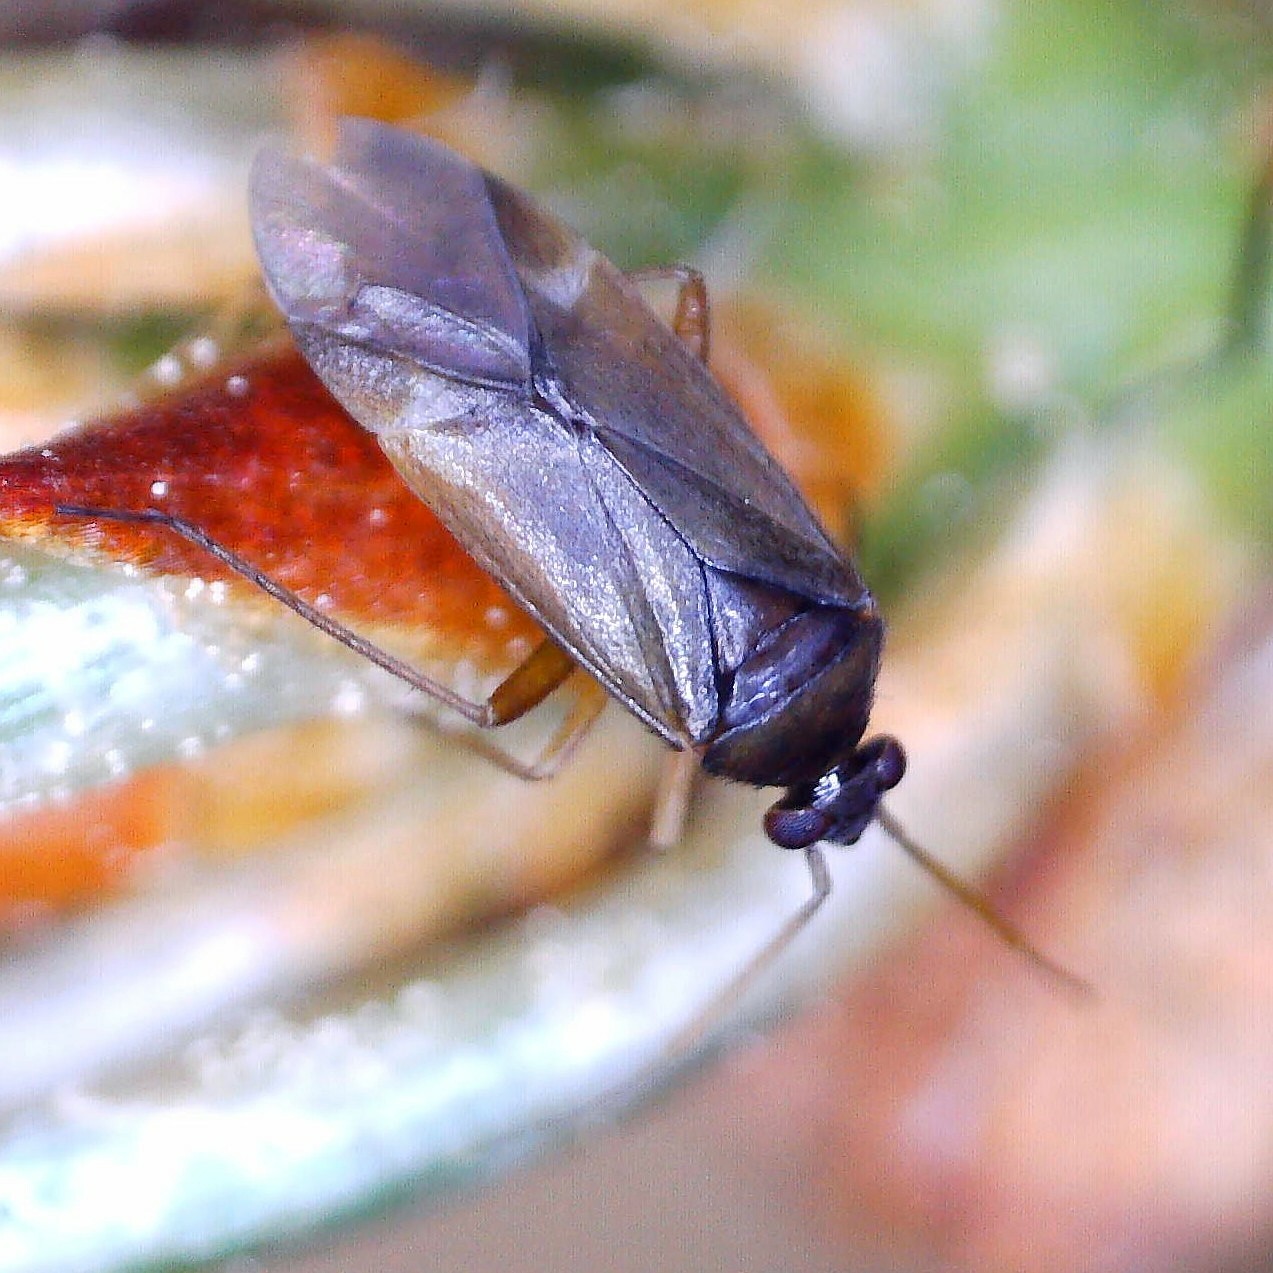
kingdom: Animalia
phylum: Arthropoda
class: Insecta
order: Hemiptera
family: Miridae
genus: Plesiodema
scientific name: Plesiodema pinetella
